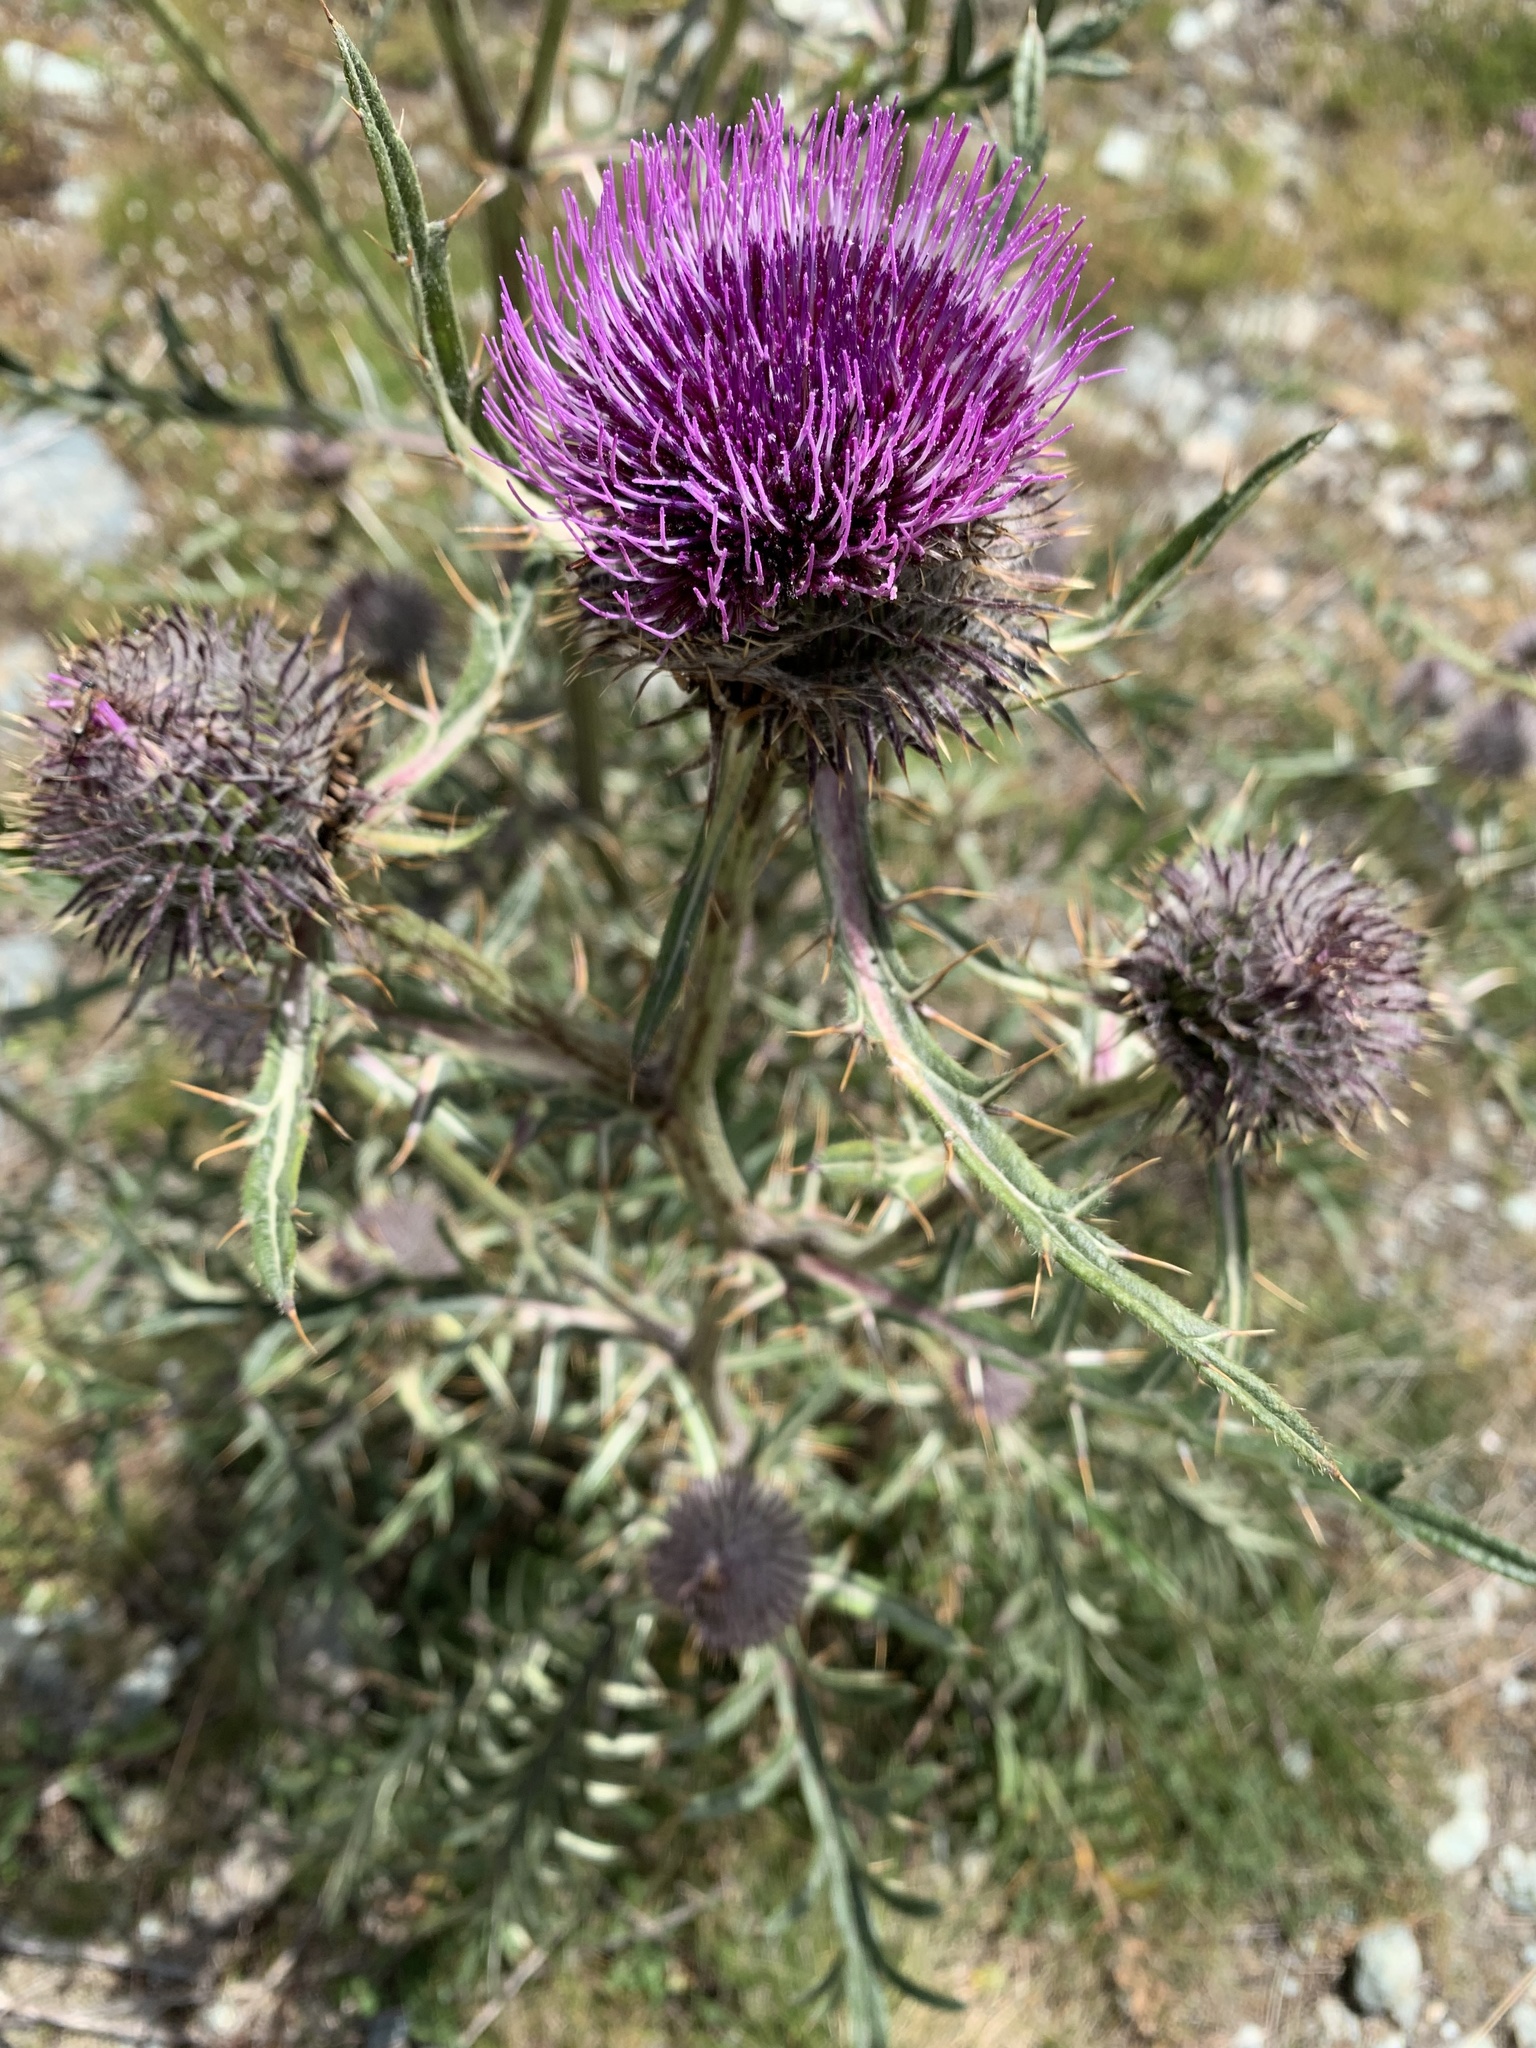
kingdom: Plantae
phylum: Tracheophyta
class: Magnoliopsida
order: Asterales
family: Asteraceae
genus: Lophiolepis
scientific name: Lophiolepis eriophora
